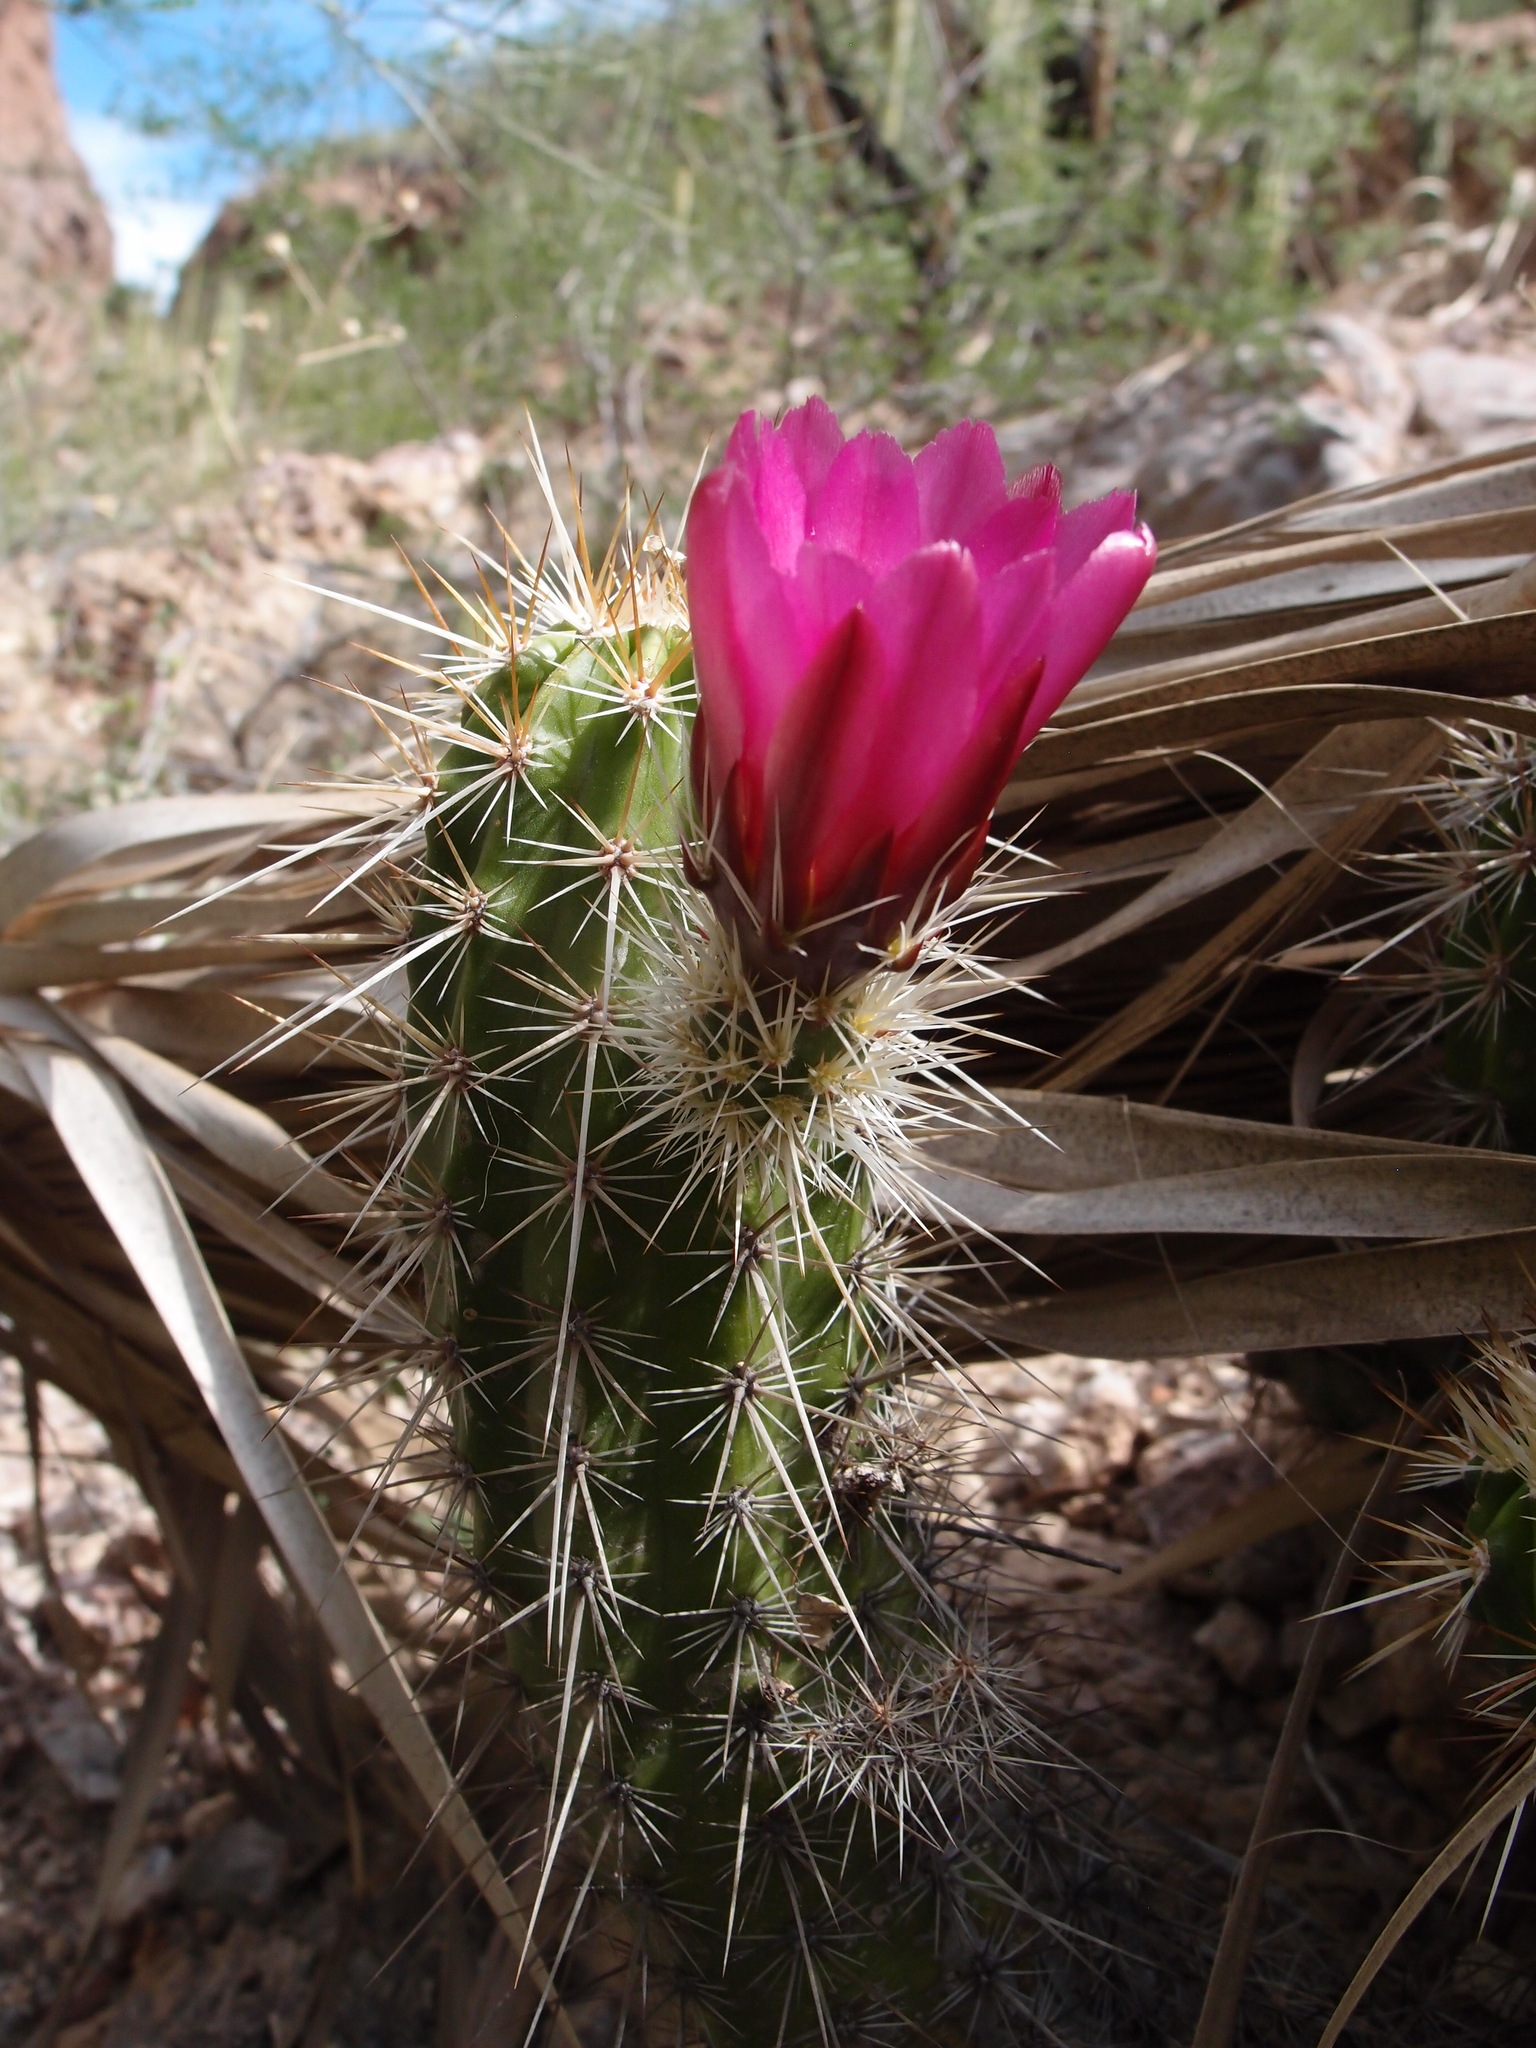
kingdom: Plantae
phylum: Tracheophyta
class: Magnoliopsida
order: Caryophyllales
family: Cactaceae
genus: Echinocereus
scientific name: Echinocereus llanurensis
